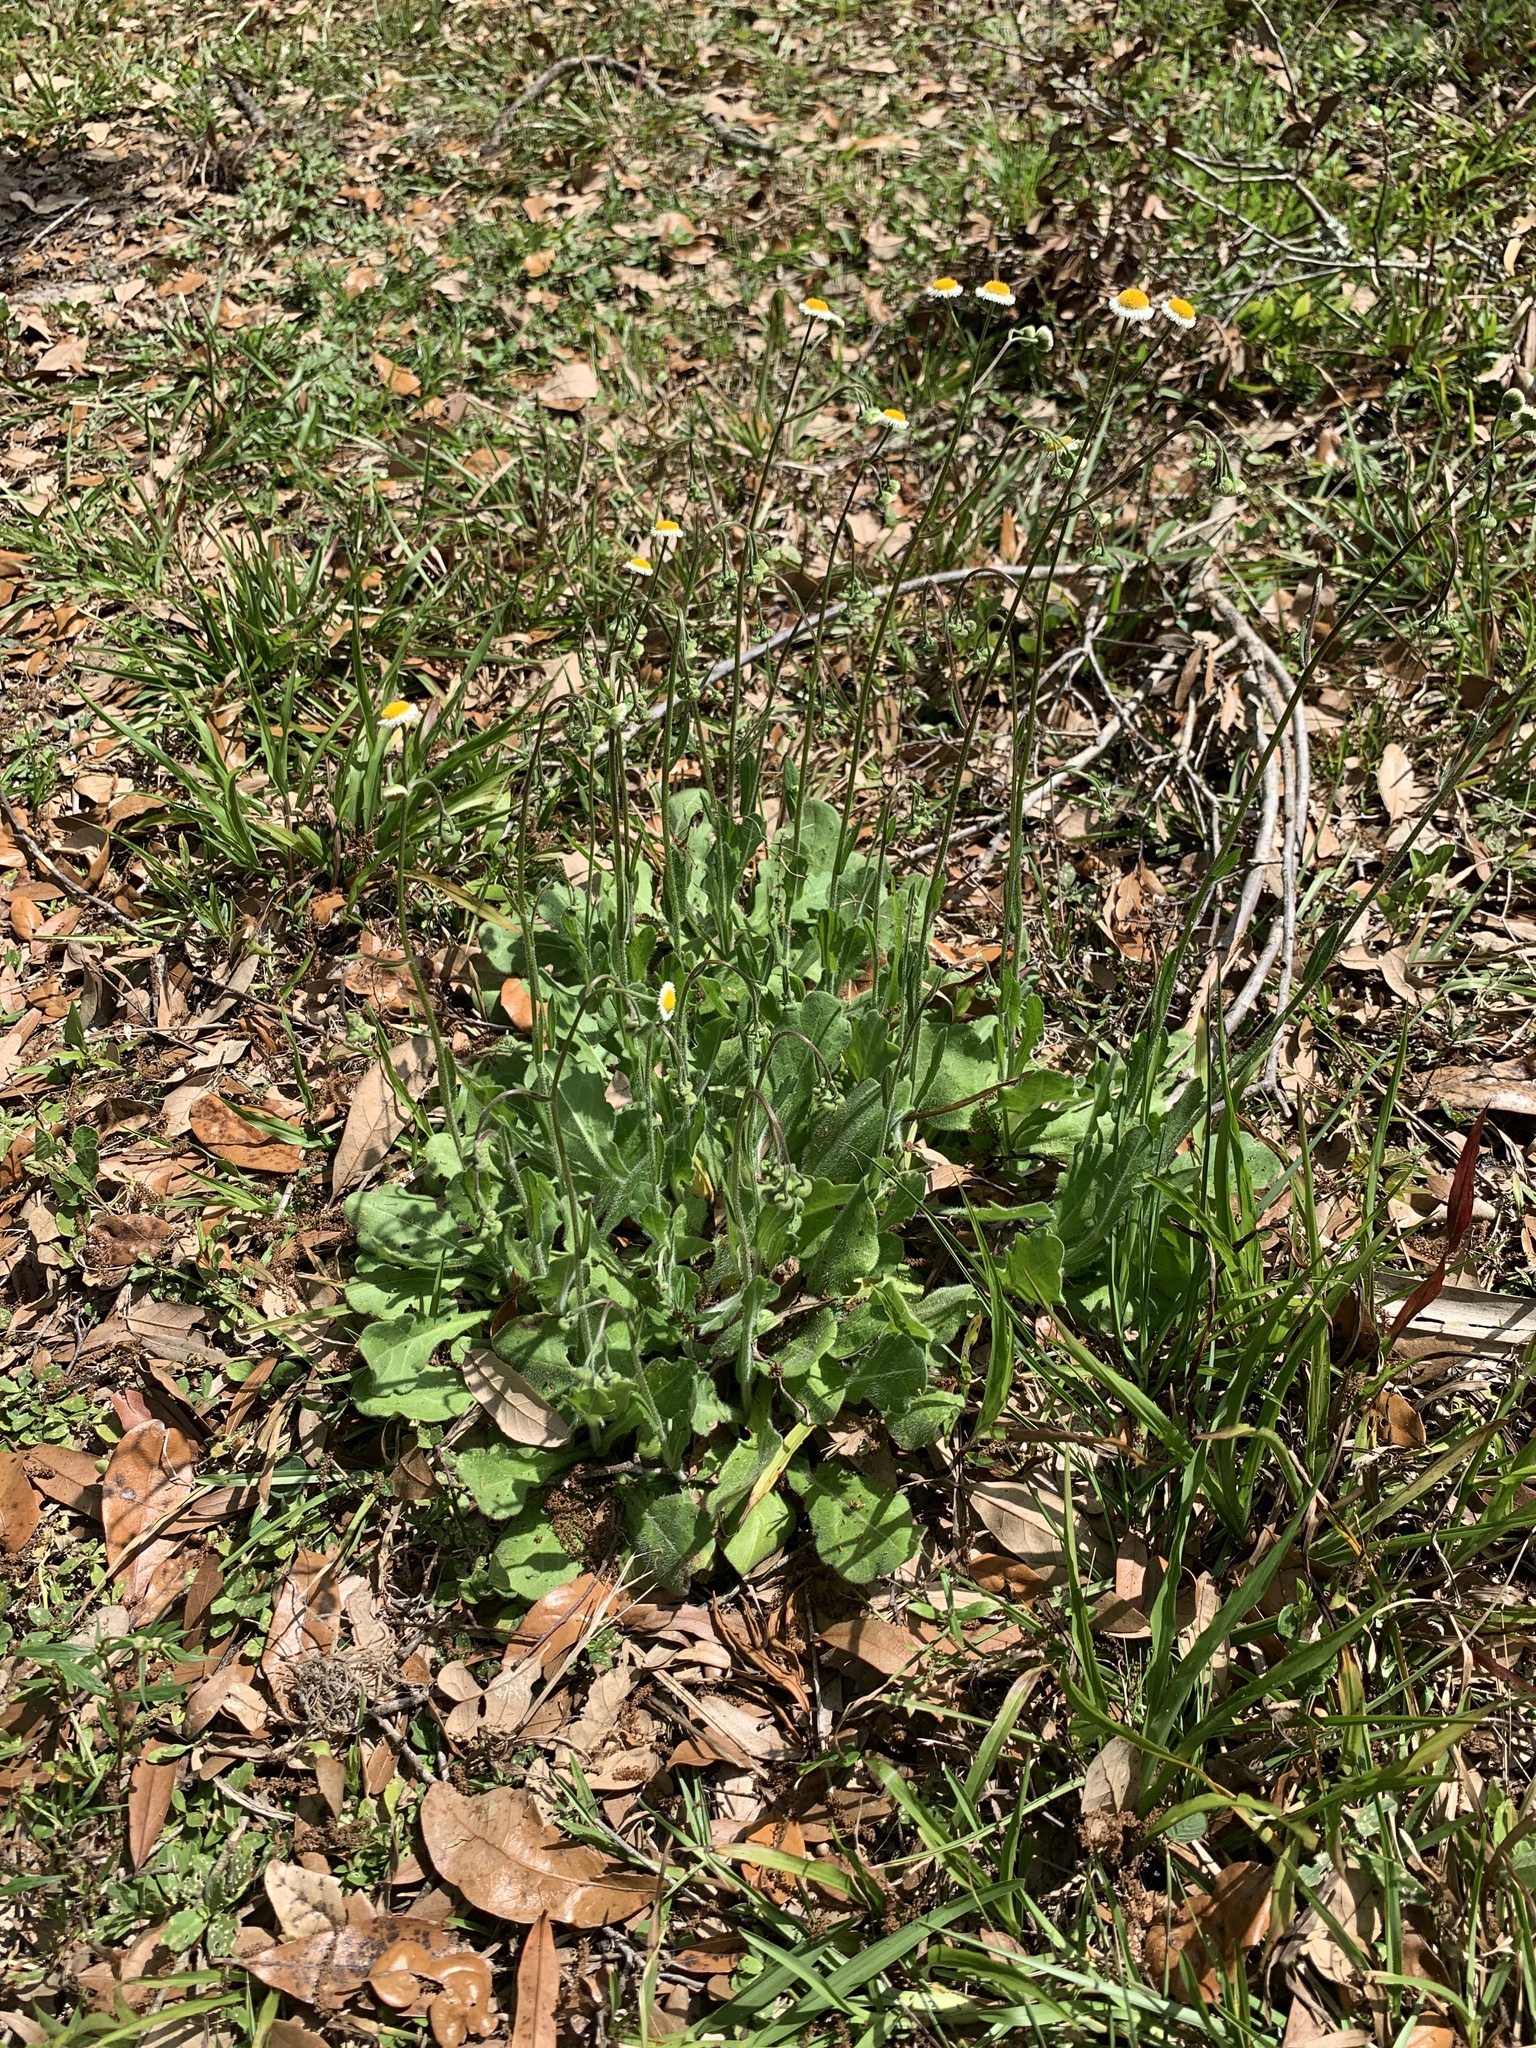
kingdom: Plantae
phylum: Tracheophyta
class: Magnoliopsida
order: Asterales
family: Asteraceae
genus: Erigeron
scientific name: Erigeron quercifolius
